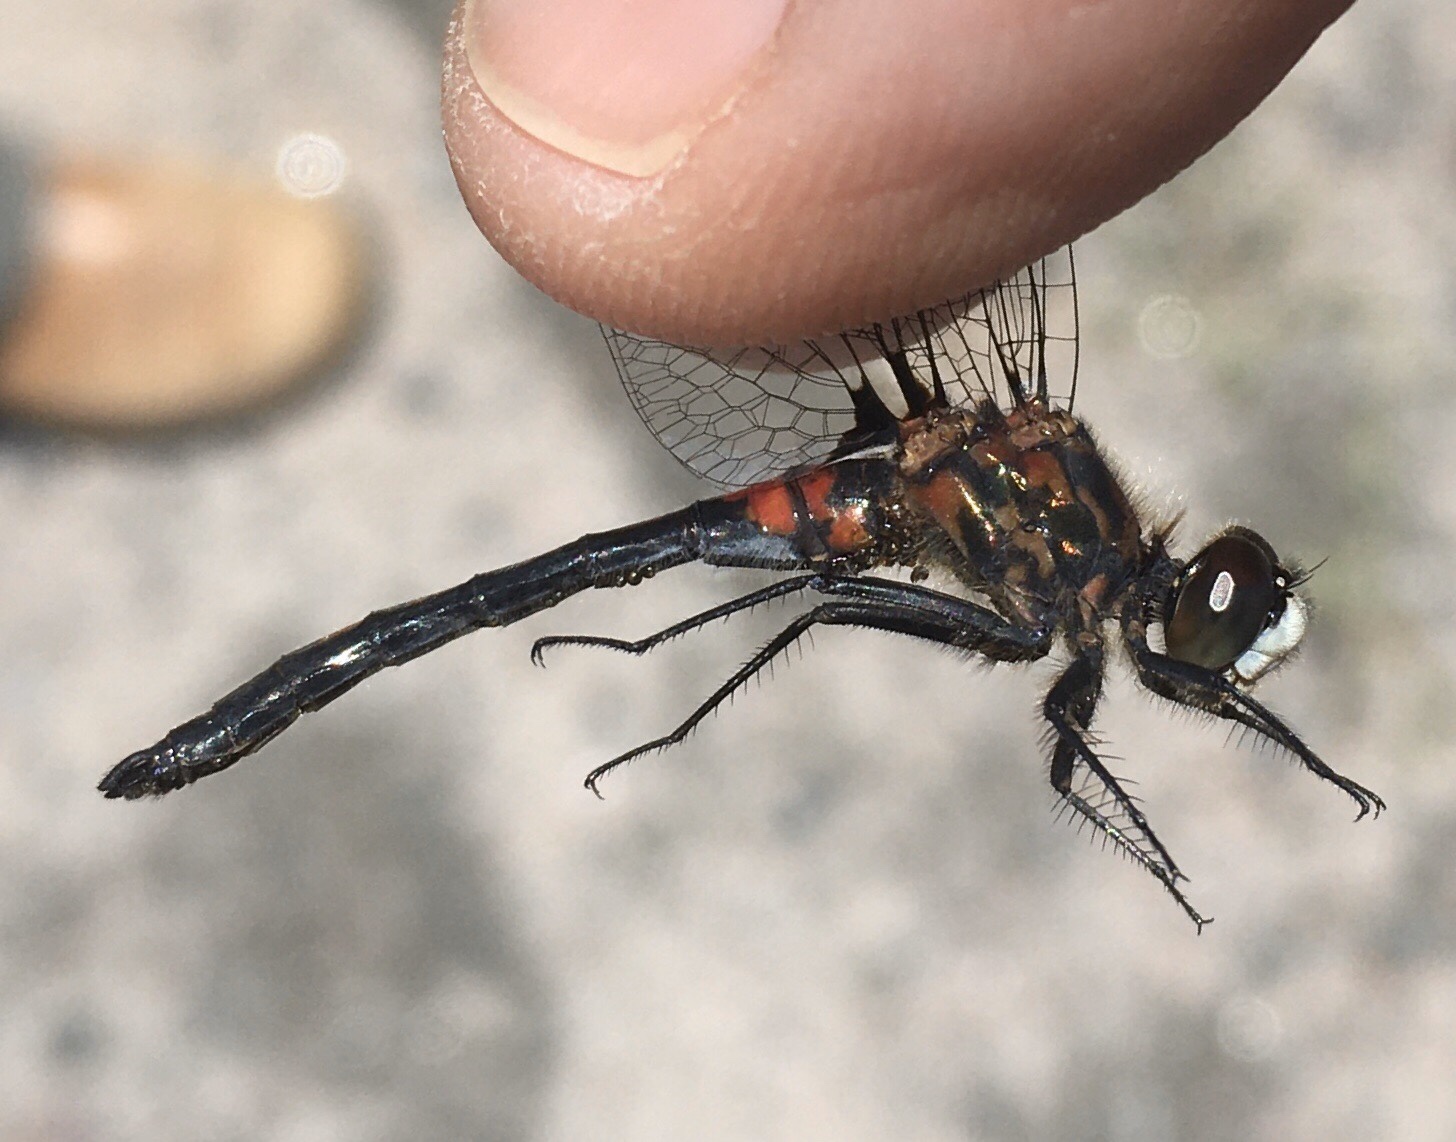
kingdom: Animalia
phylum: Arthropoda
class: Insecta
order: Odonata
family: Libellulidae
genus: Leucorrhinia
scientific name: Leucorrhinia hudsonica
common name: Hudsonian whiteface
